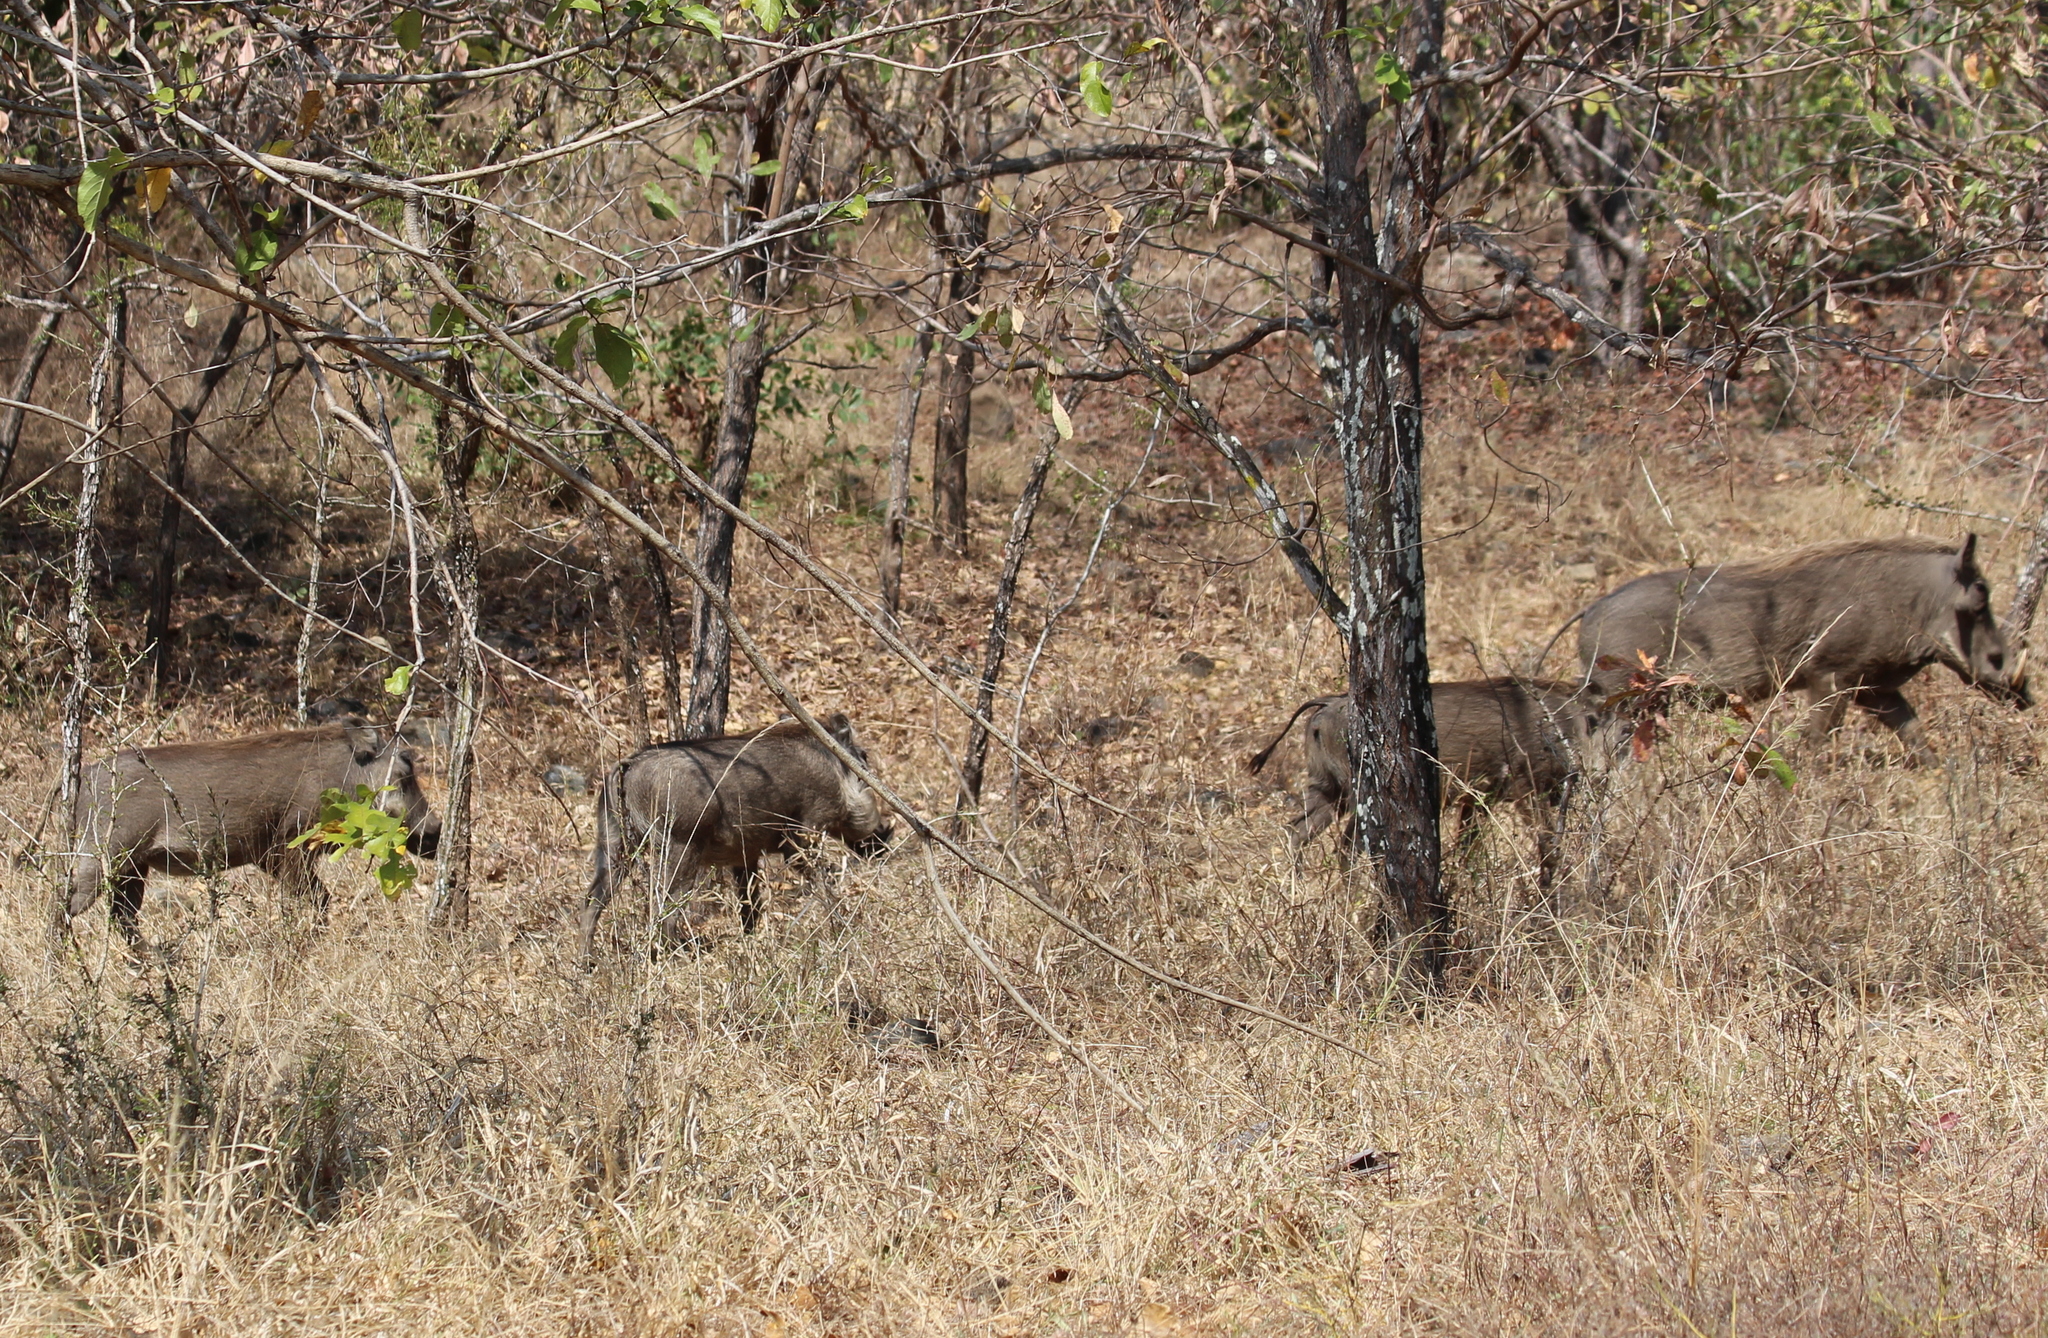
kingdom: Animalia
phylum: Chordata
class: Mammalia
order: Artiodactyla
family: Suidae
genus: Phacochoerus
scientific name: Phacochoerus africanus
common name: Common warthog
